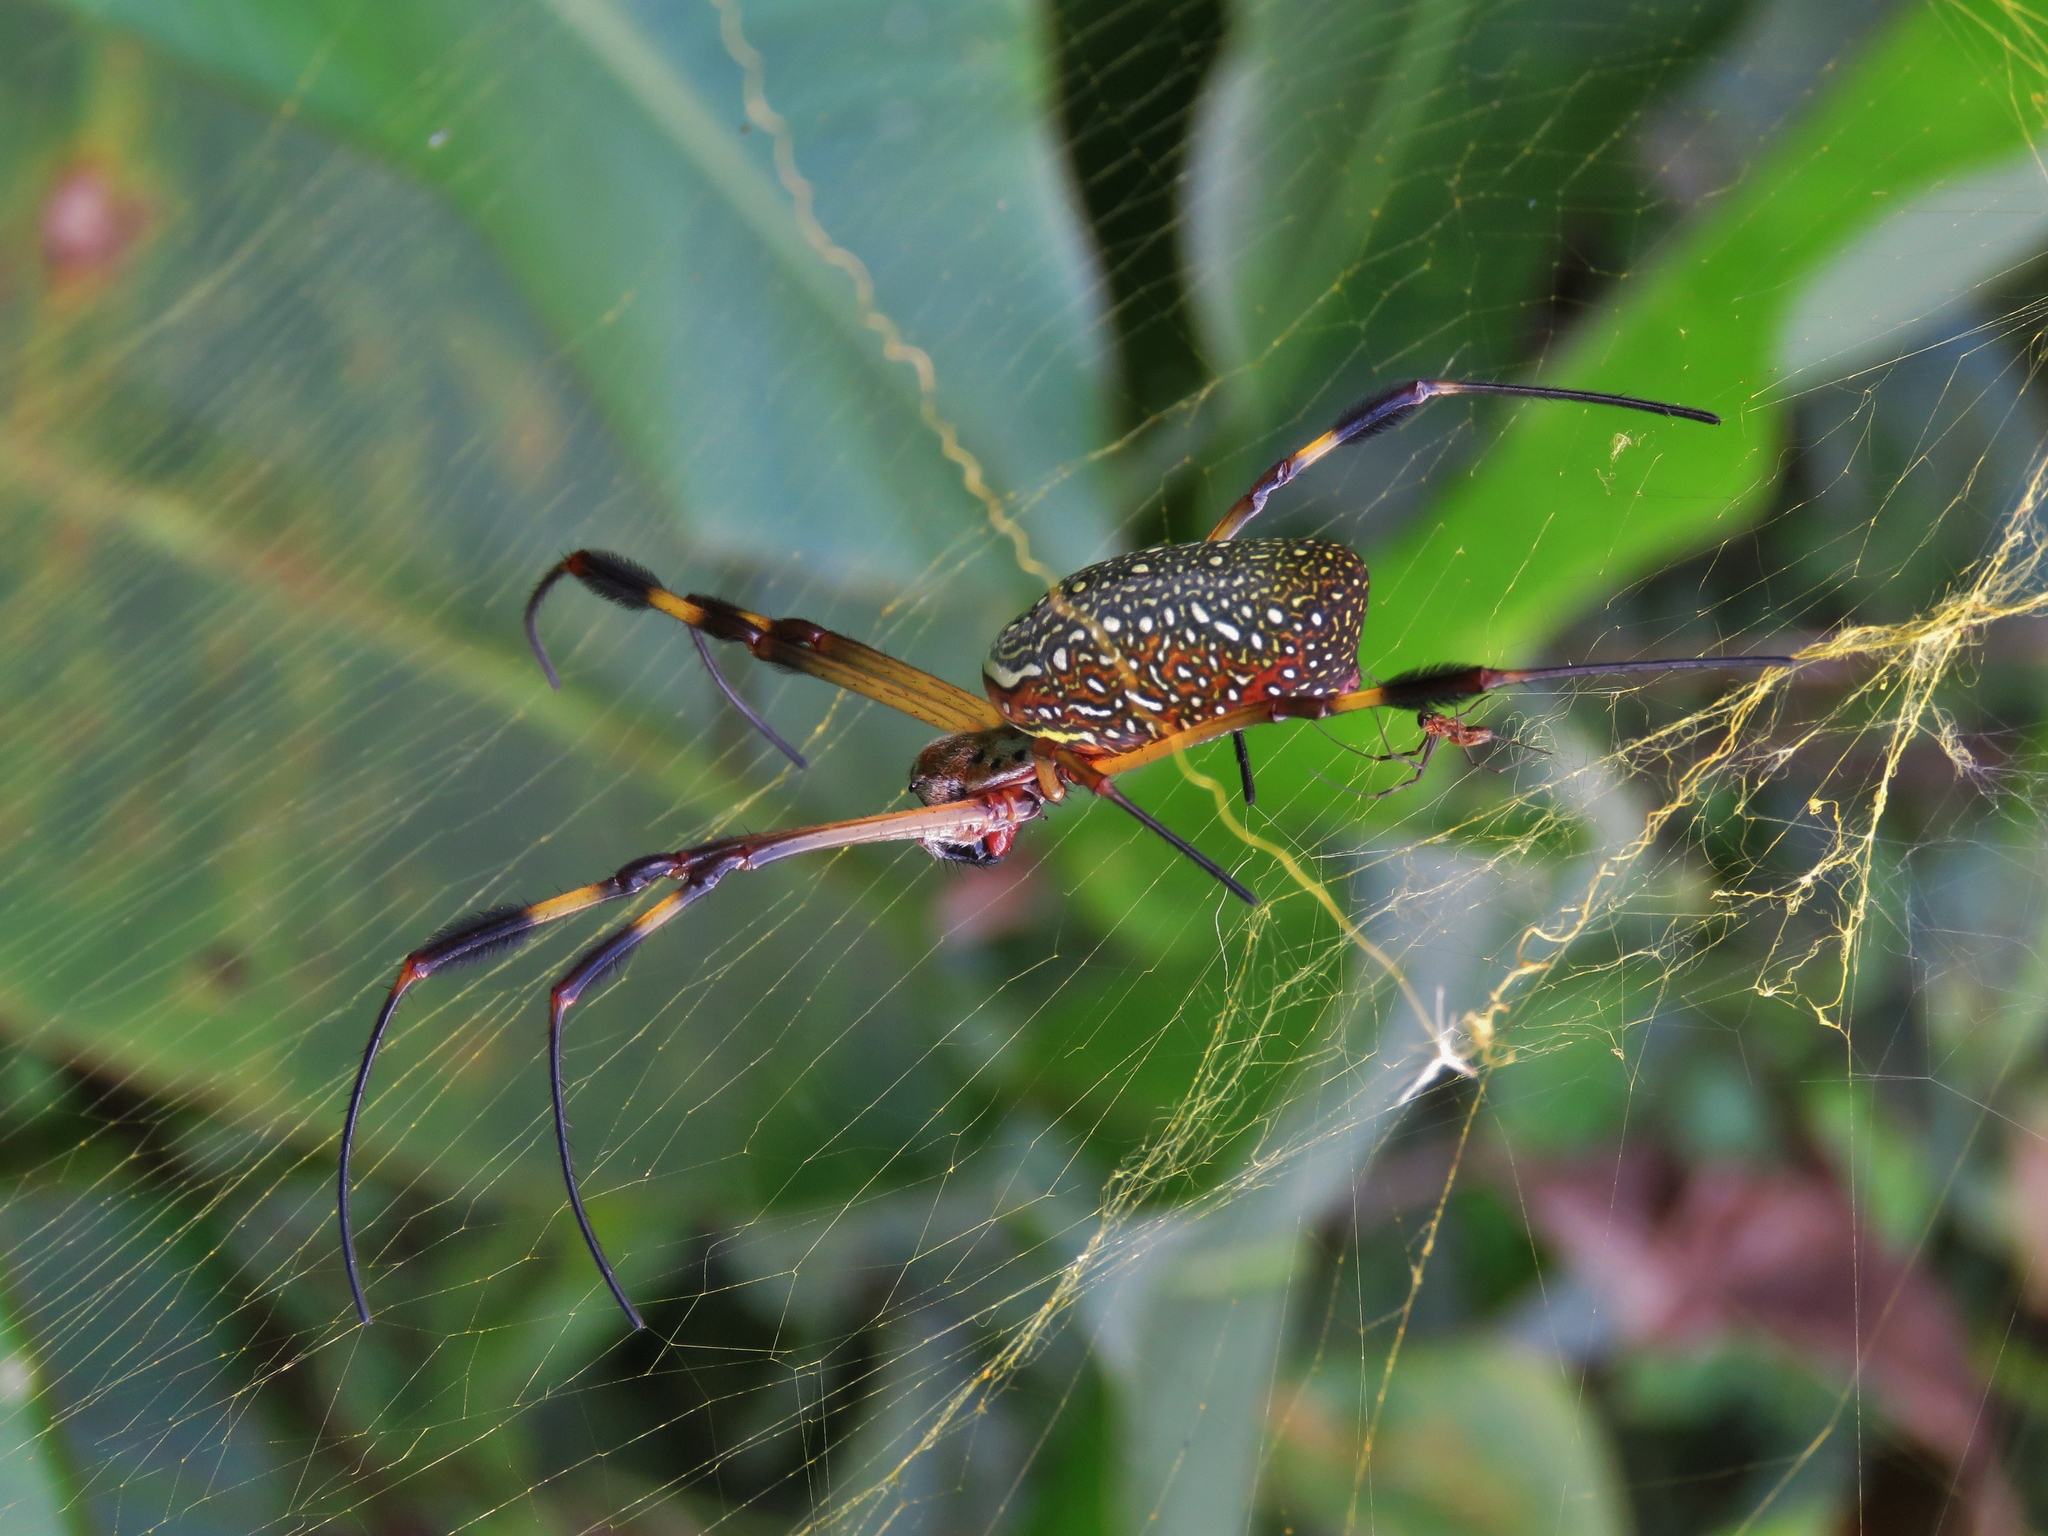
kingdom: Animalia
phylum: Arthropoda
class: Arachnida
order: Araneae
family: Araneidae
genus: Trichonephila
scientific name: Trichonephila clavipes
